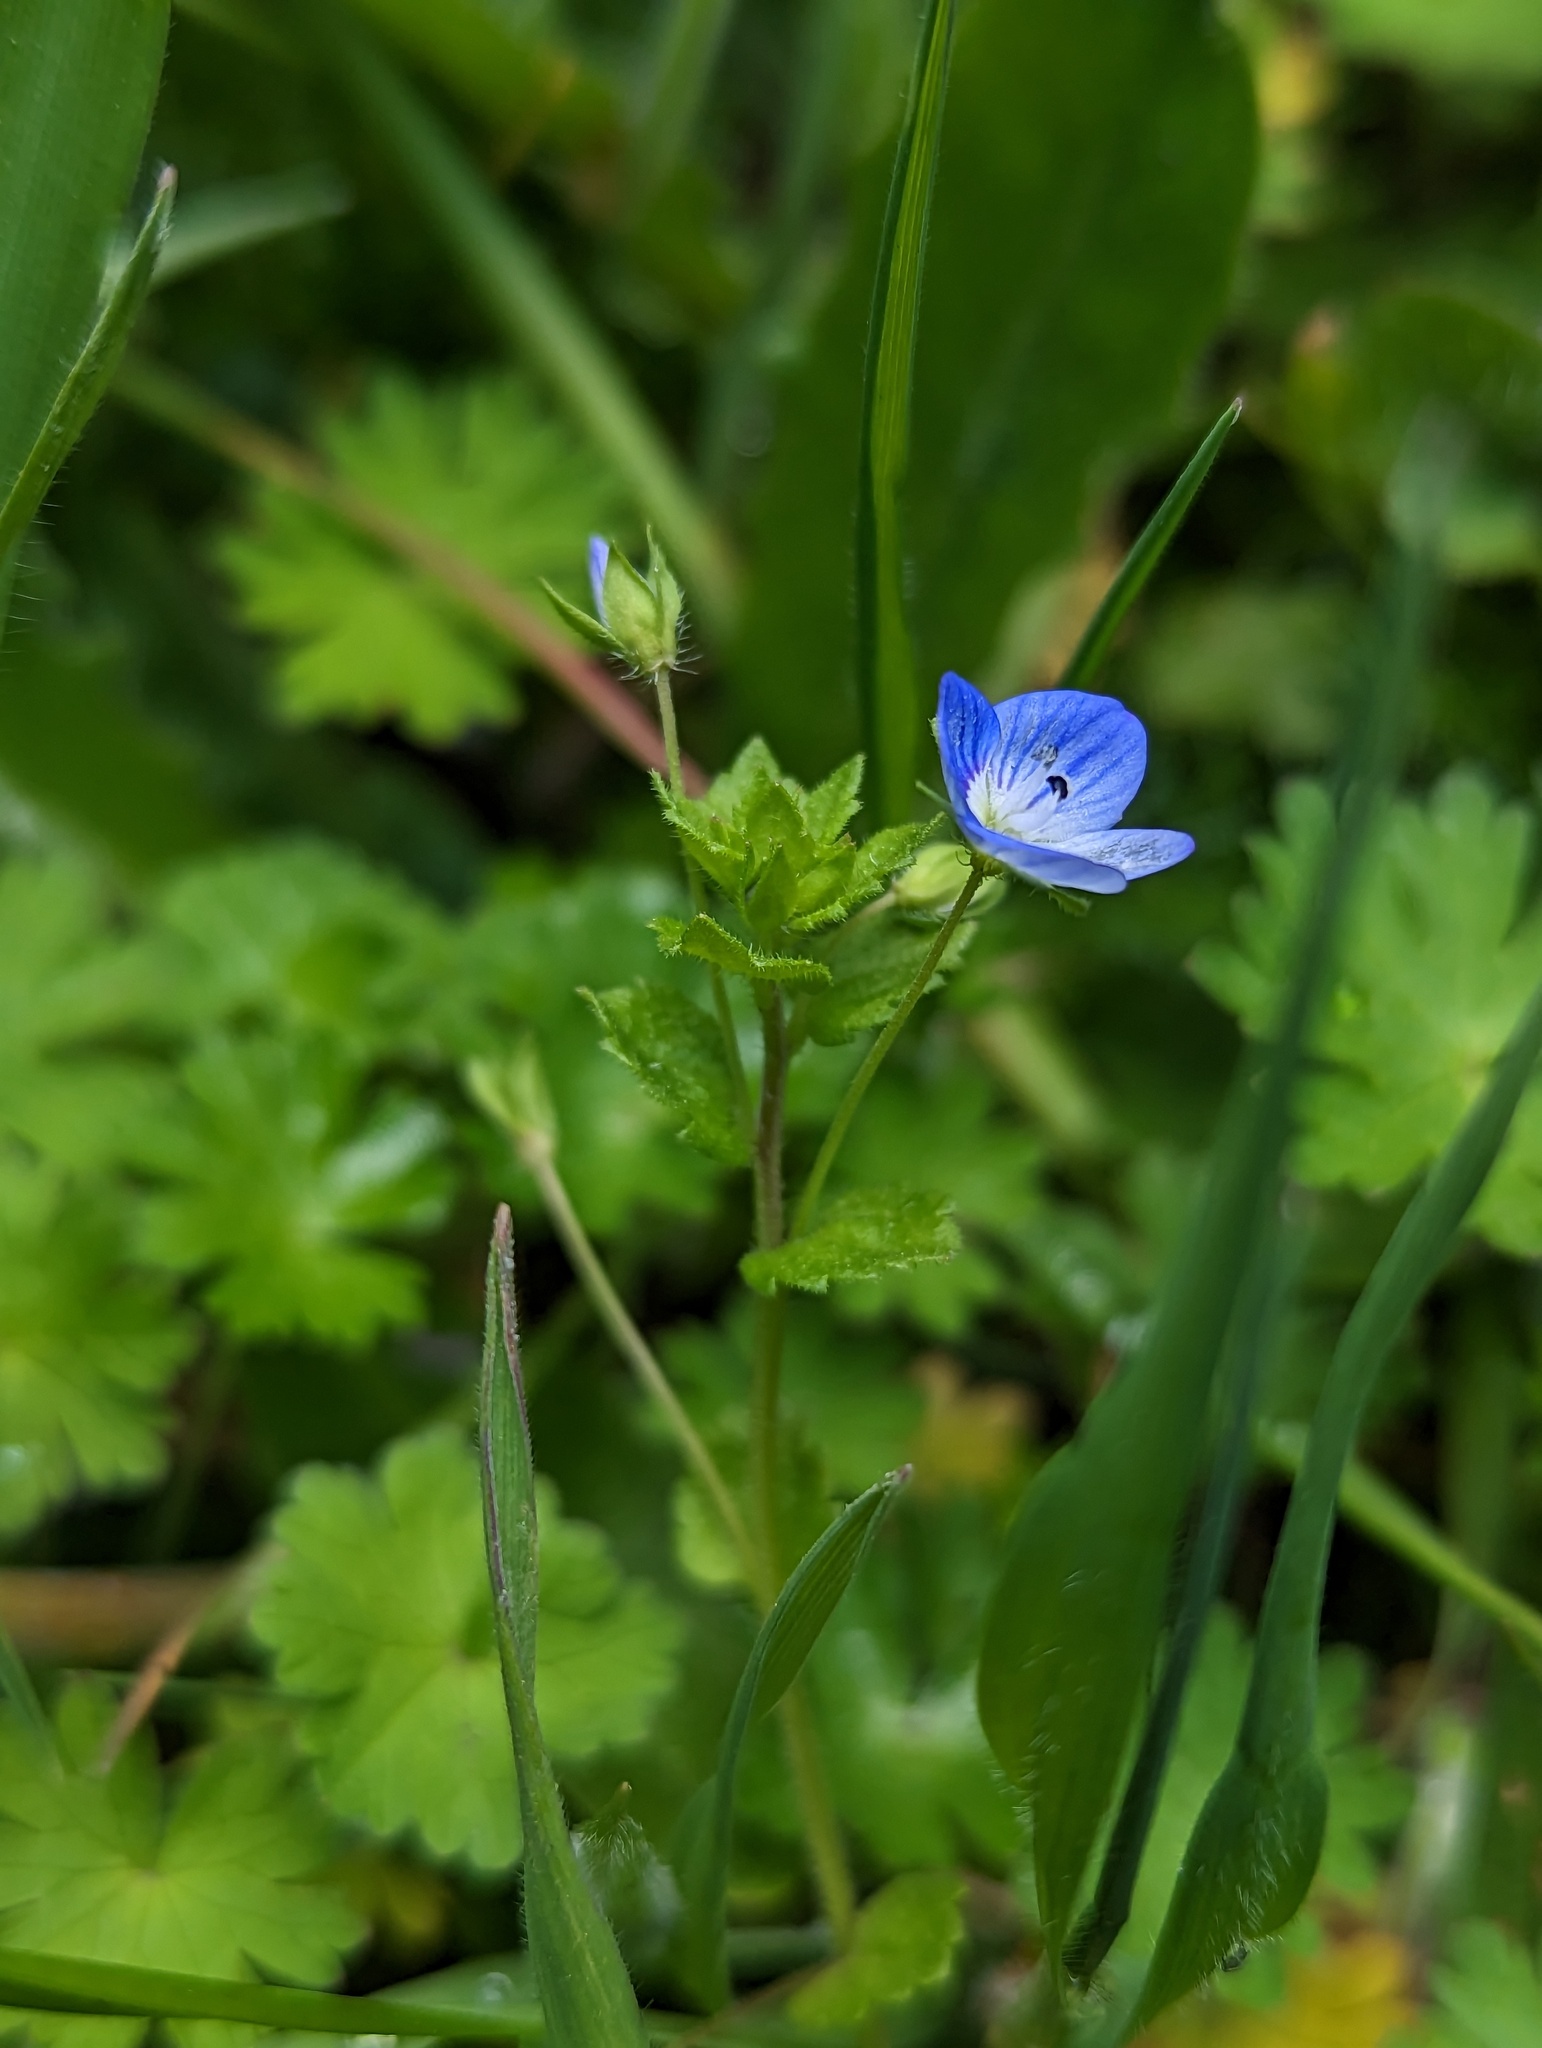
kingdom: Plantae
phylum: Tracheophyta
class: Magnoliopsida
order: Lamiales
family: Plantaginaceae
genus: Veronica
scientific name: Veronica persica
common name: Common field-speedwell
